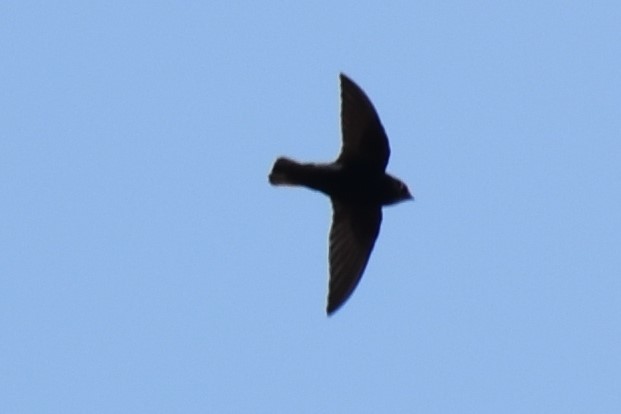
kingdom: Animalia
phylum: Chordata
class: Aves
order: Passeriformes
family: Hirundinidae
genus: Ptyonoprogne
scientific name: Ptyonoprogne fuligula
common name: Rock martin
